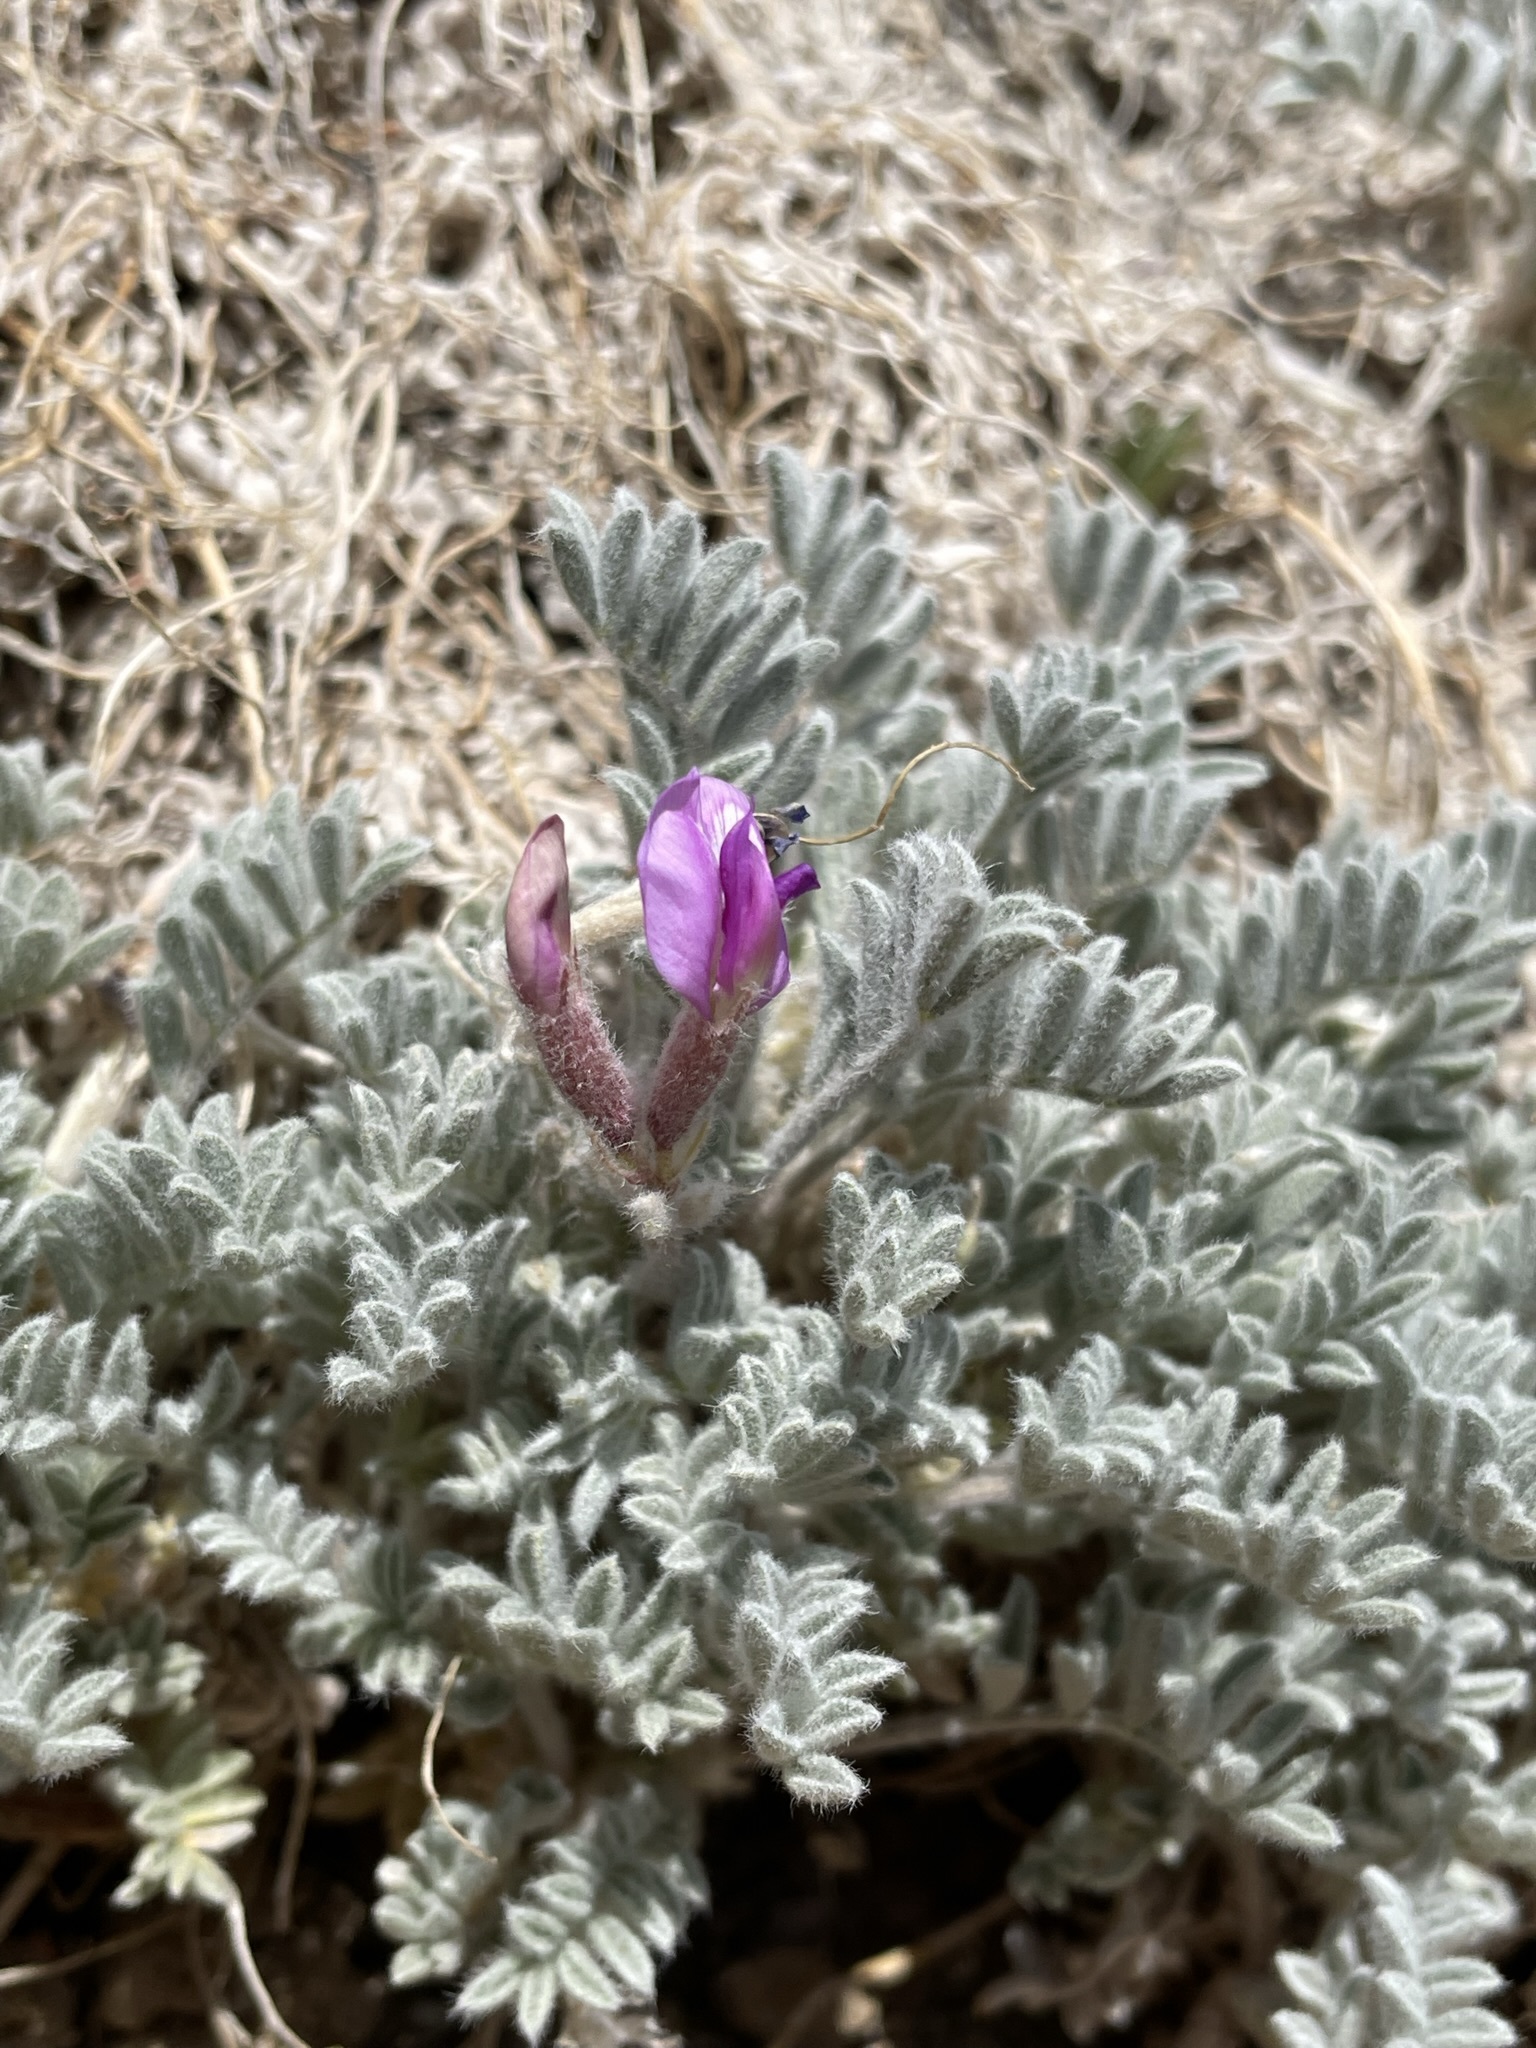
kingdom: Plantae
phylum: Tracheophyta
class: Magnoliopsida
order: Fabales
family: Fabaceae
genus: Astragalus
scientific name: Astragalus purshii
